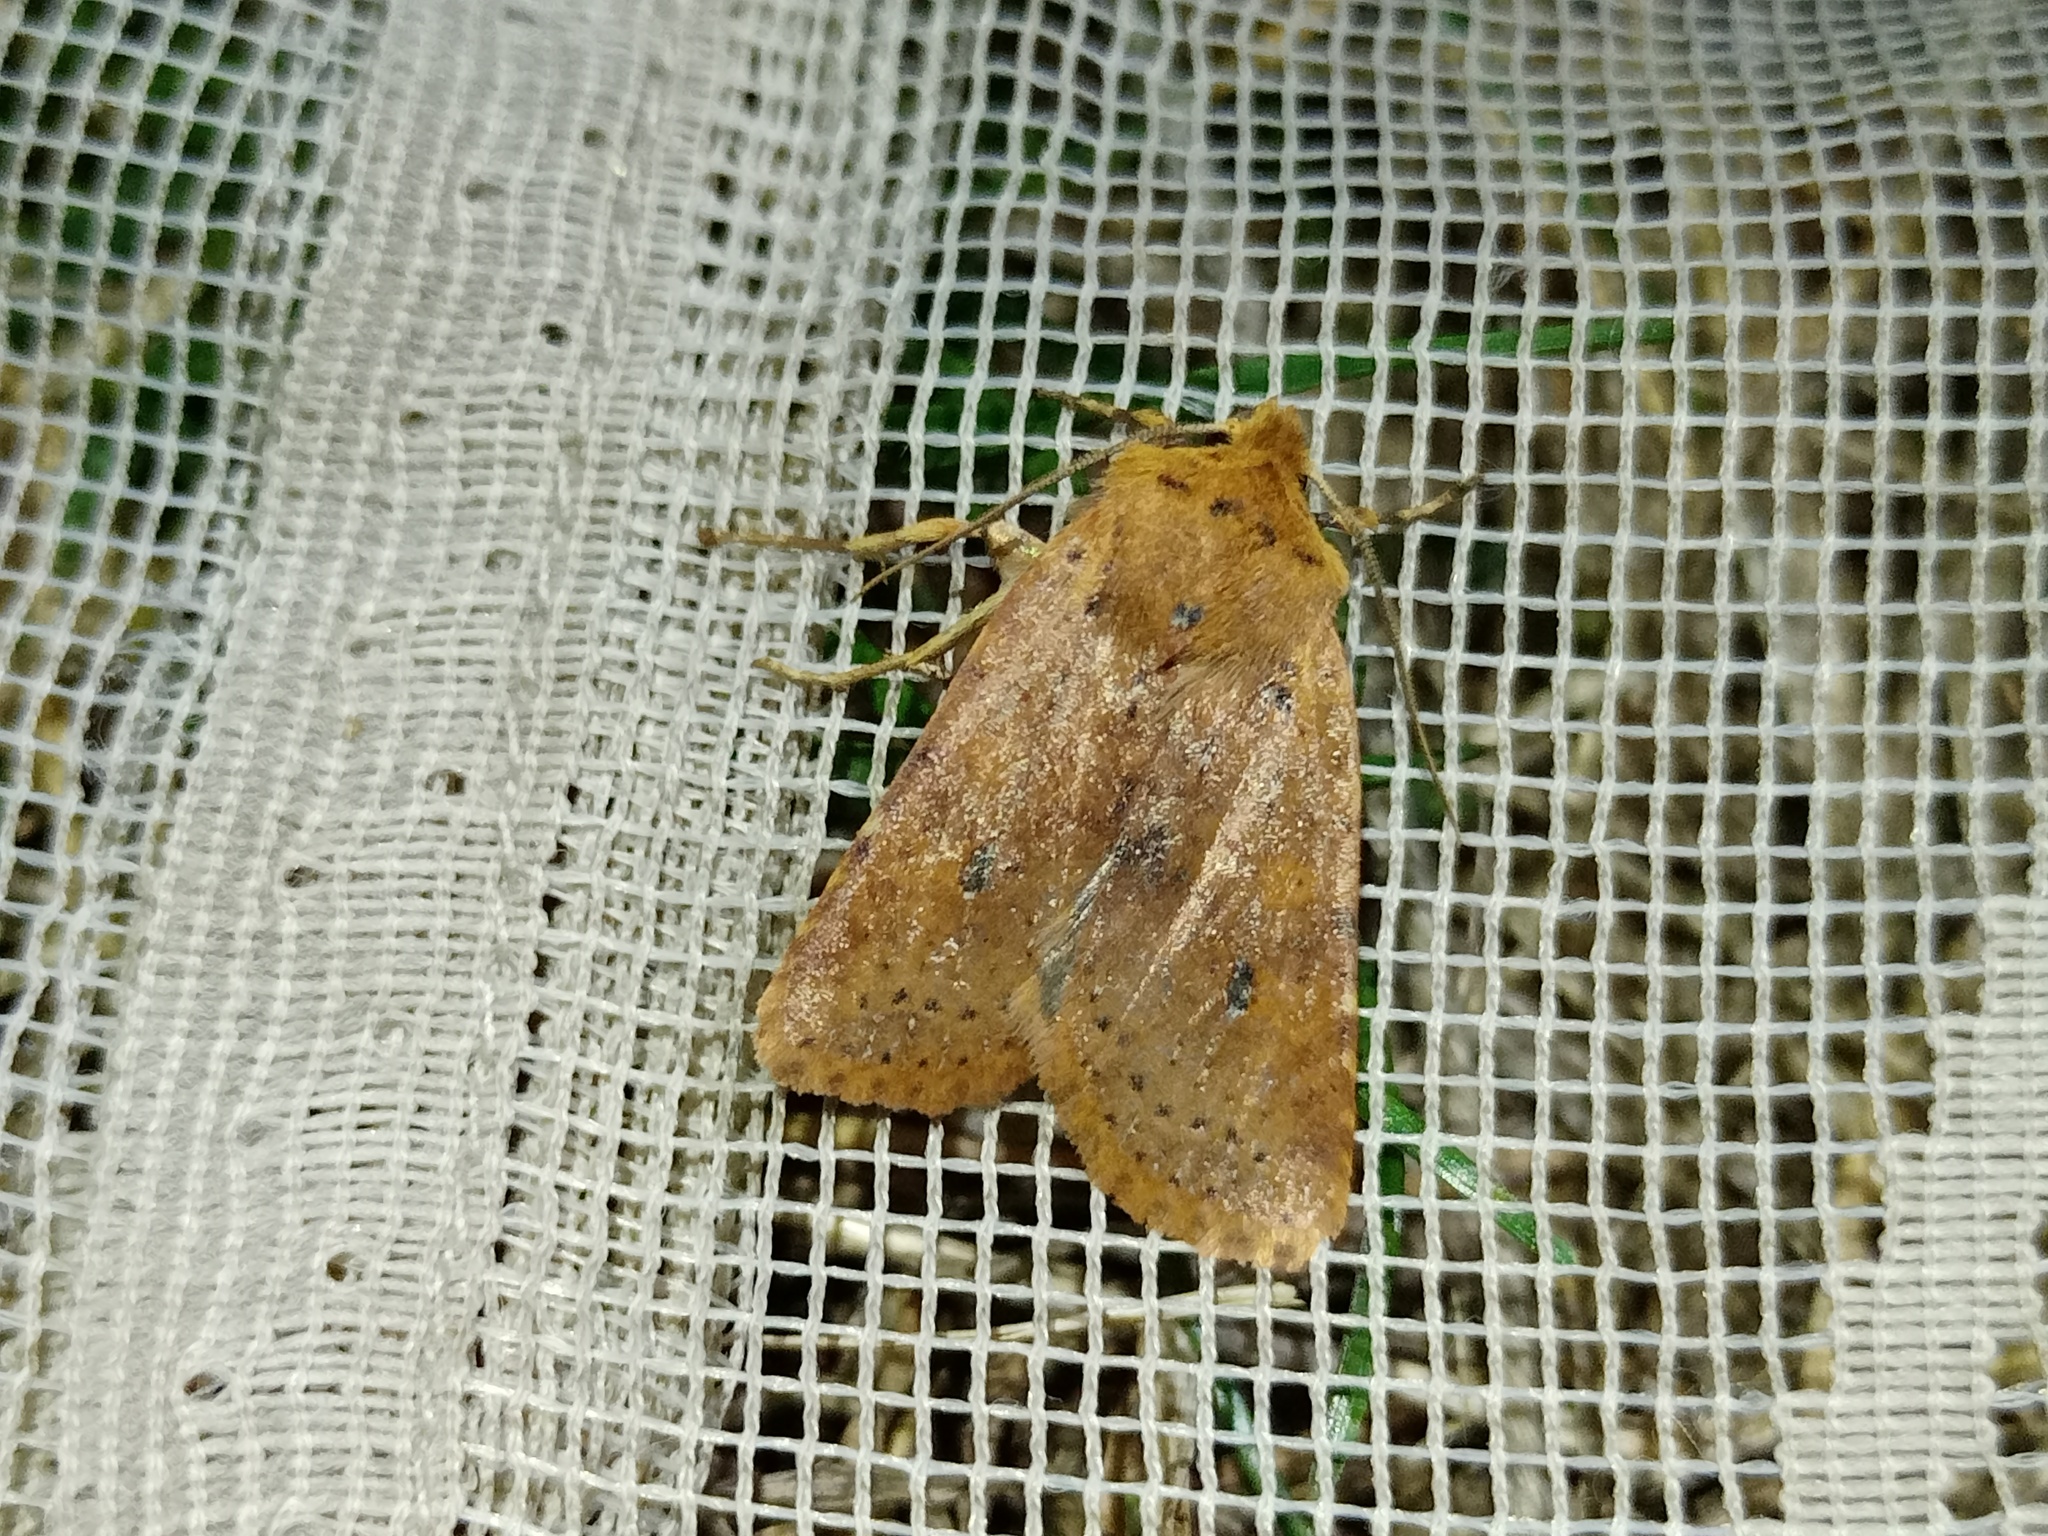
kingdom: Animalia
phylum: Arthropoda
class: Insecta
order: Lepidoptera
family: Noctuidae
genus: Conistra
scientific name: Conistra rubiginea
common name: Dotted chestnut
